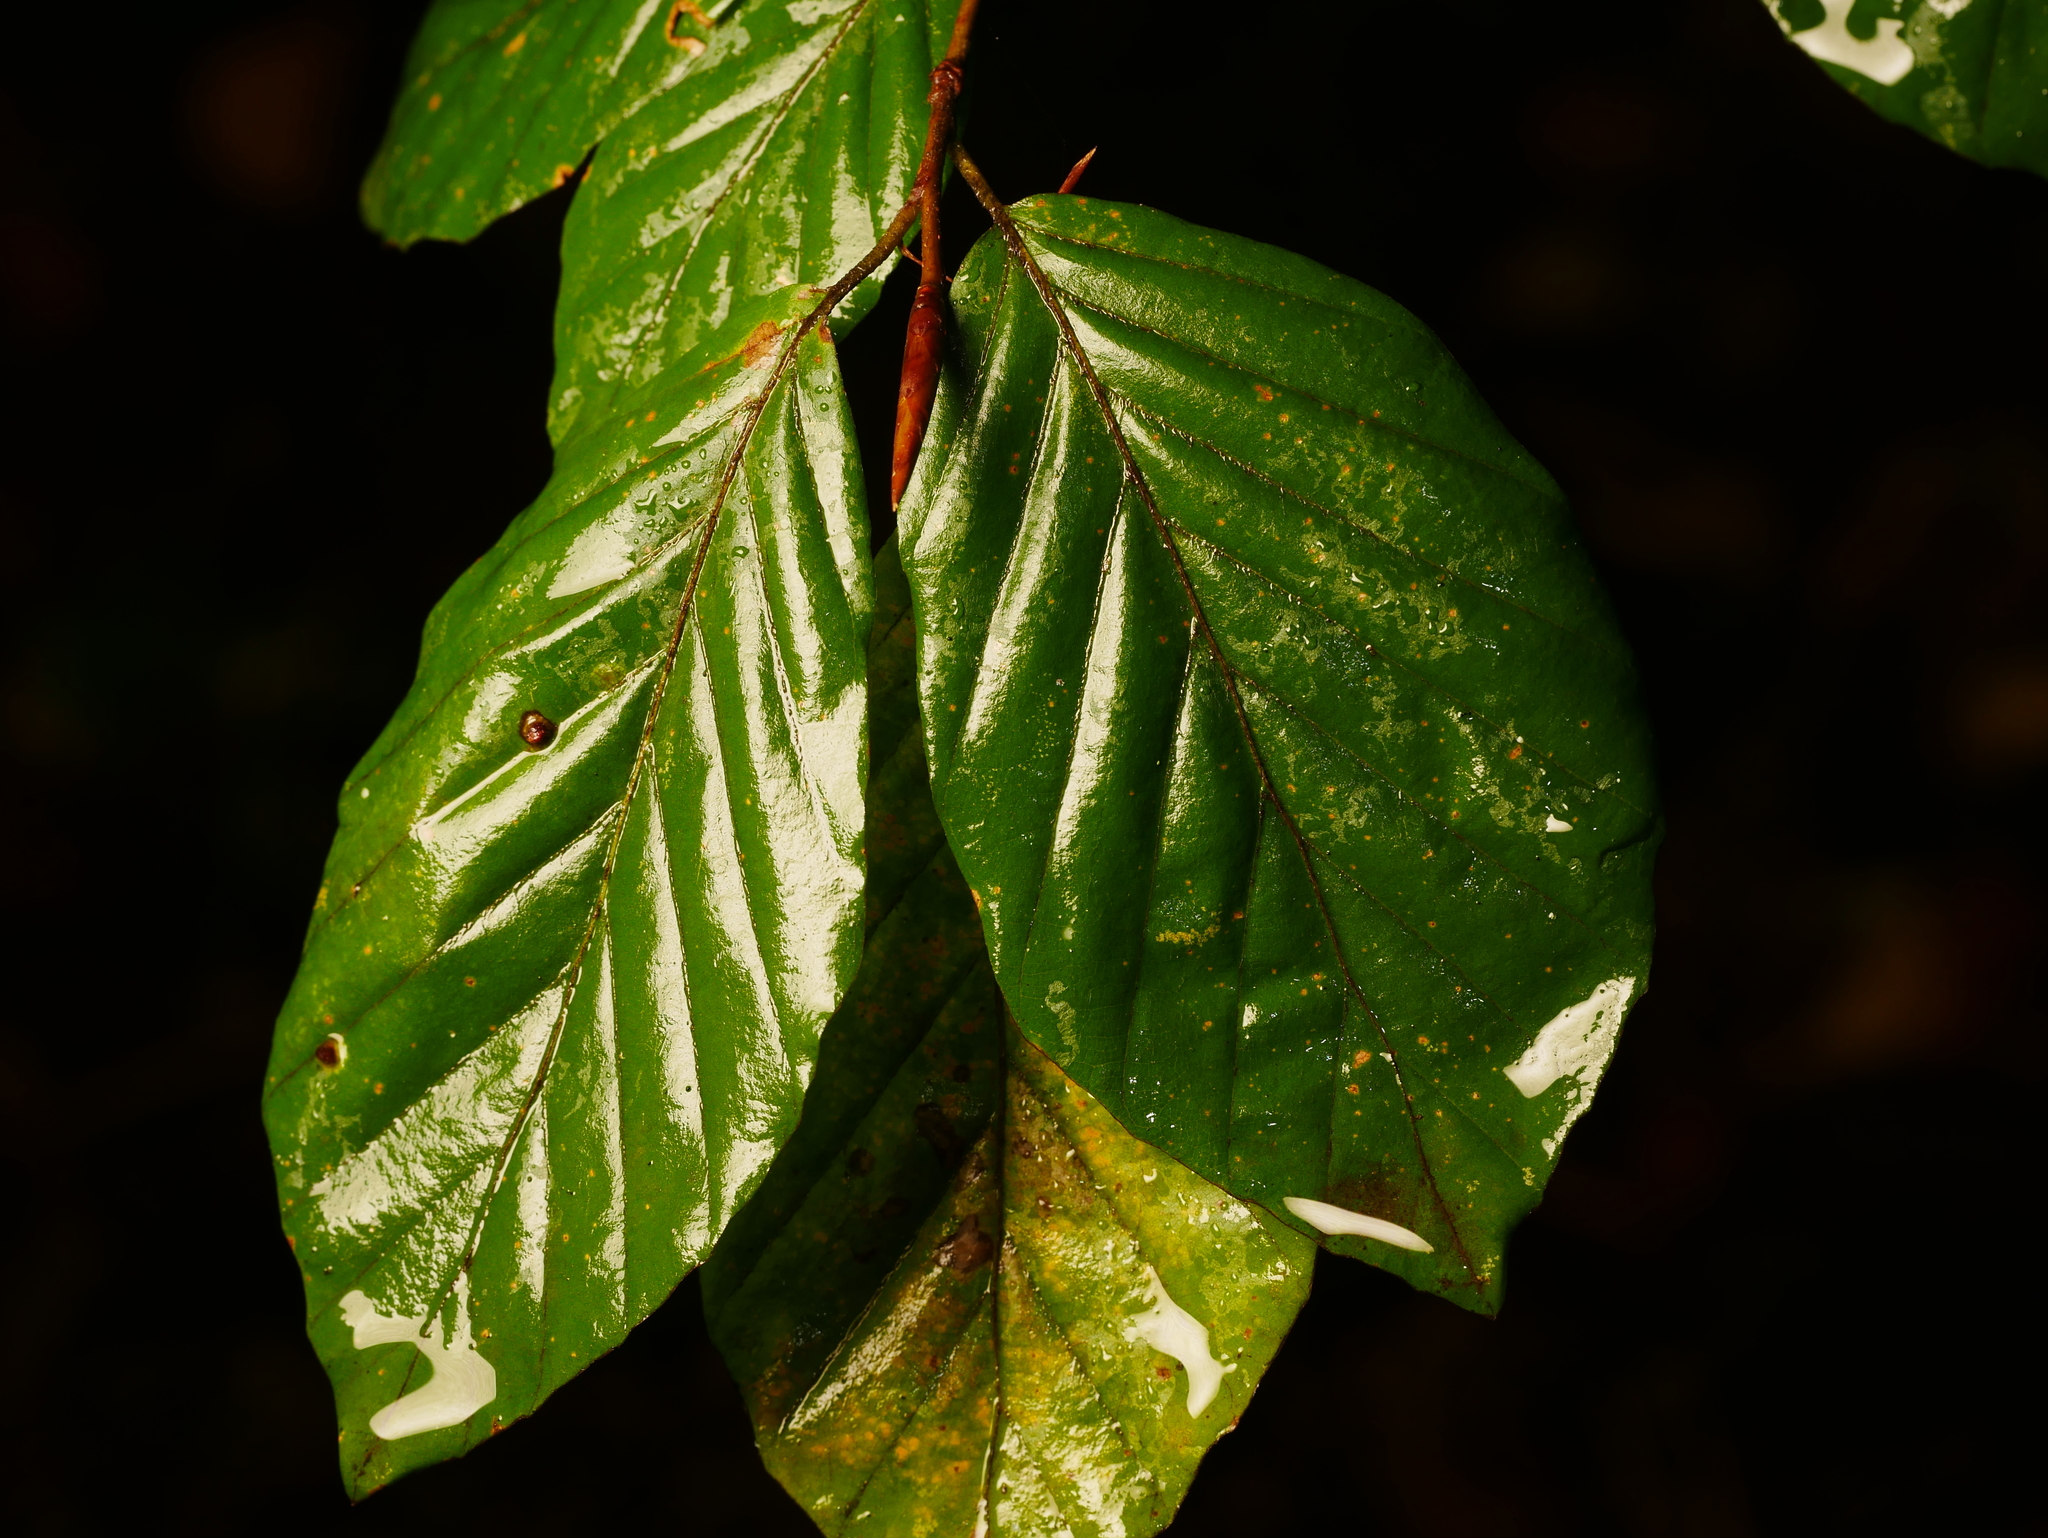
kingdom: Plantae
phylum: Tracheophyta
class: Magnoliopsida
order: Fagales
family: Fagaceae
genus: Fagus
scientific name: Fagus sylvatica
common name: Beech
